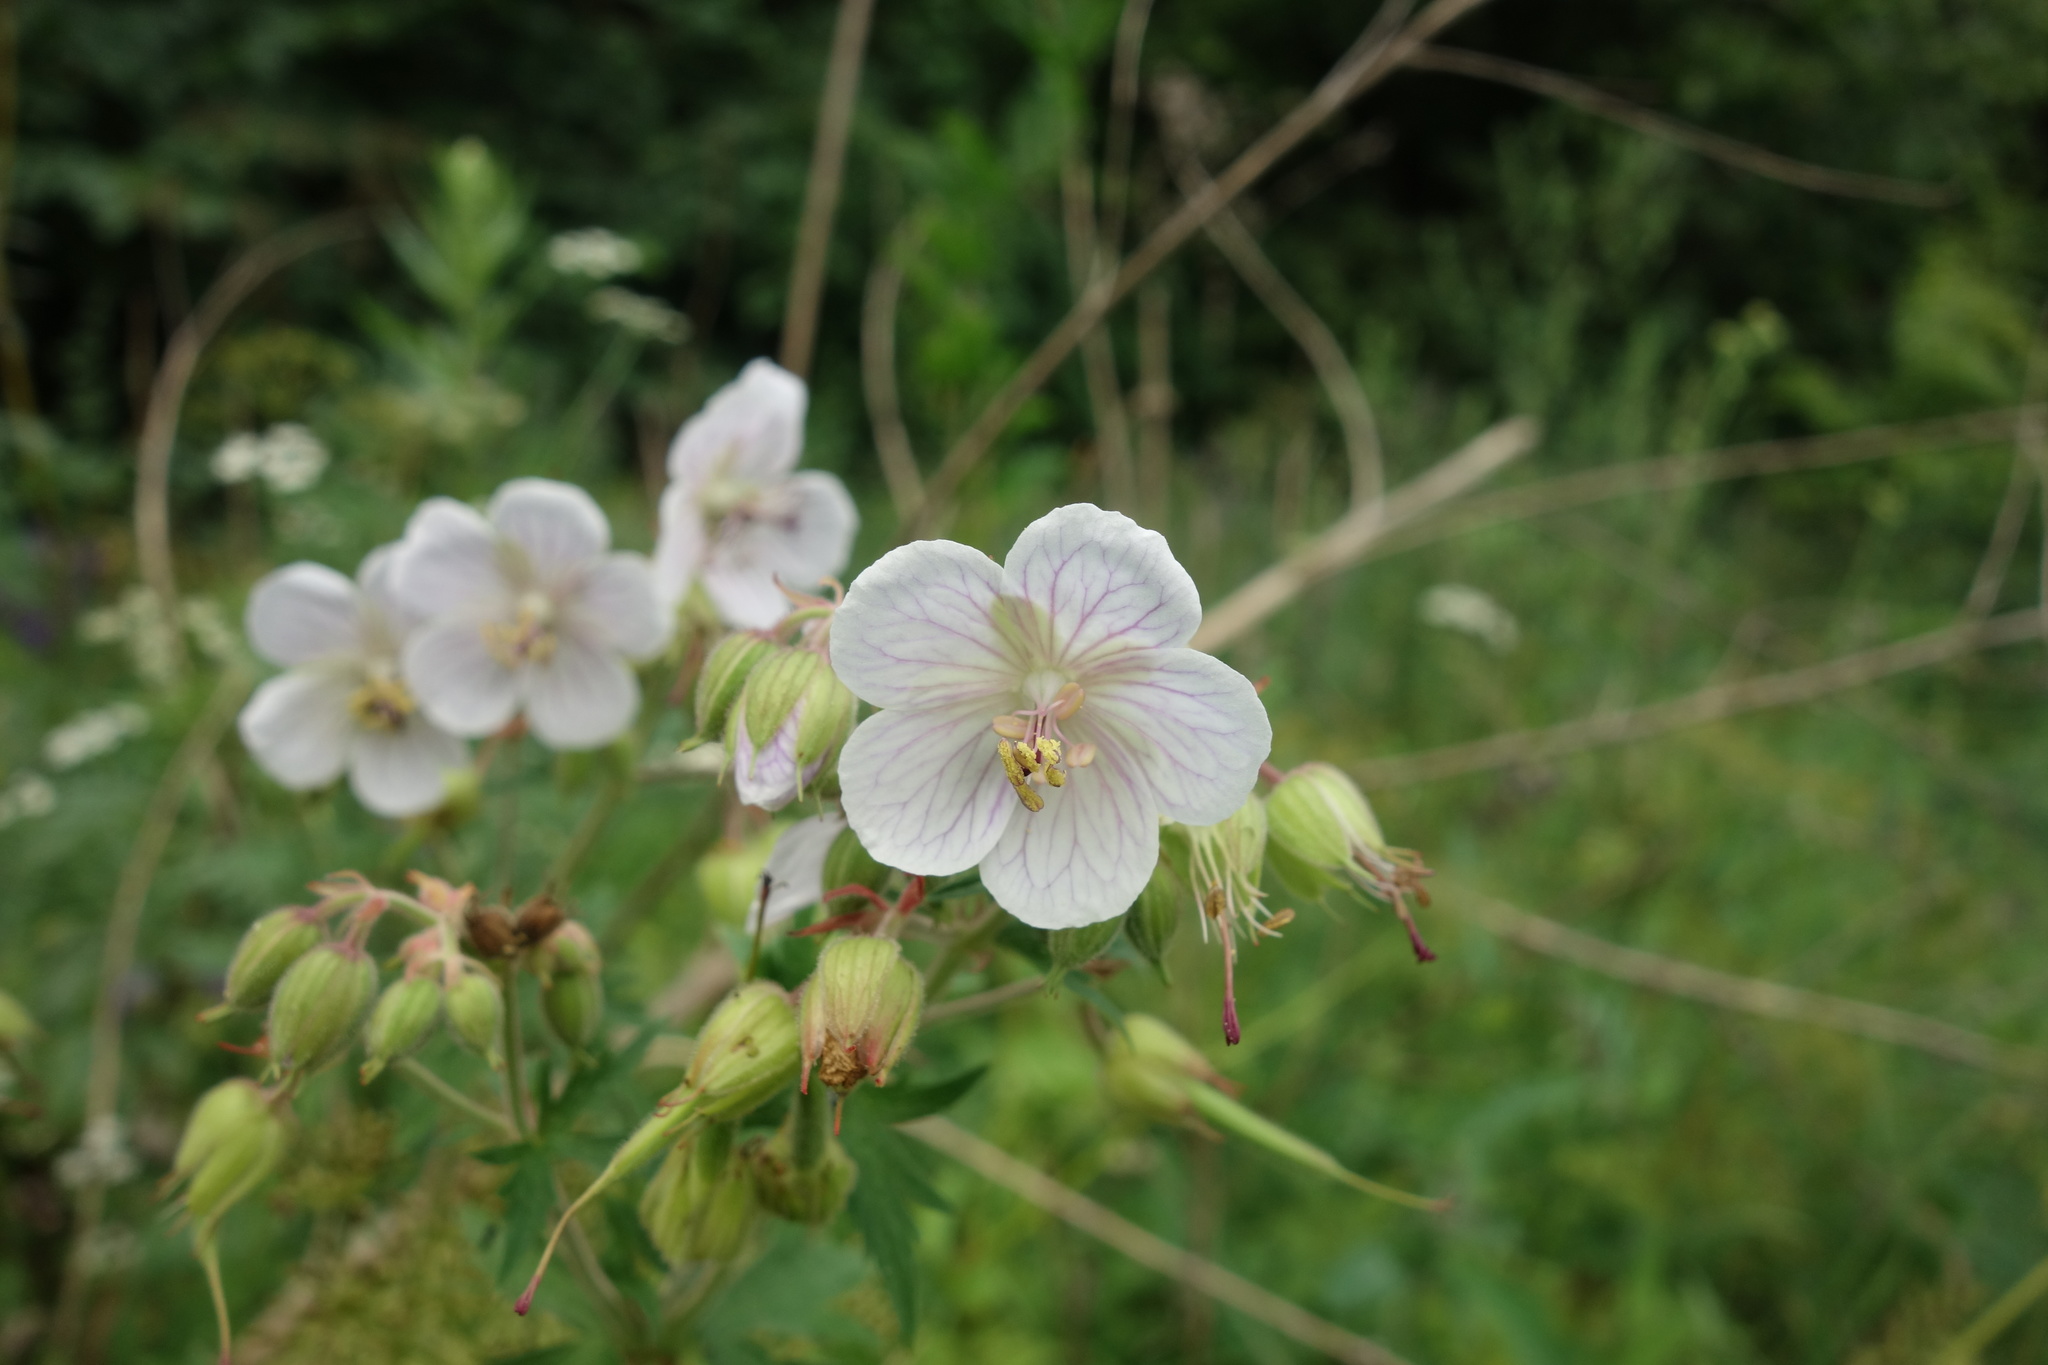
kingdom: Plantae
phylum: Tracheophyta
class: Magnoliopsida
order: Geraniales
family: Geraniaceae
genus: Geranium
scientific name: Geranium pratense
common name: Meadow crane's-bill
